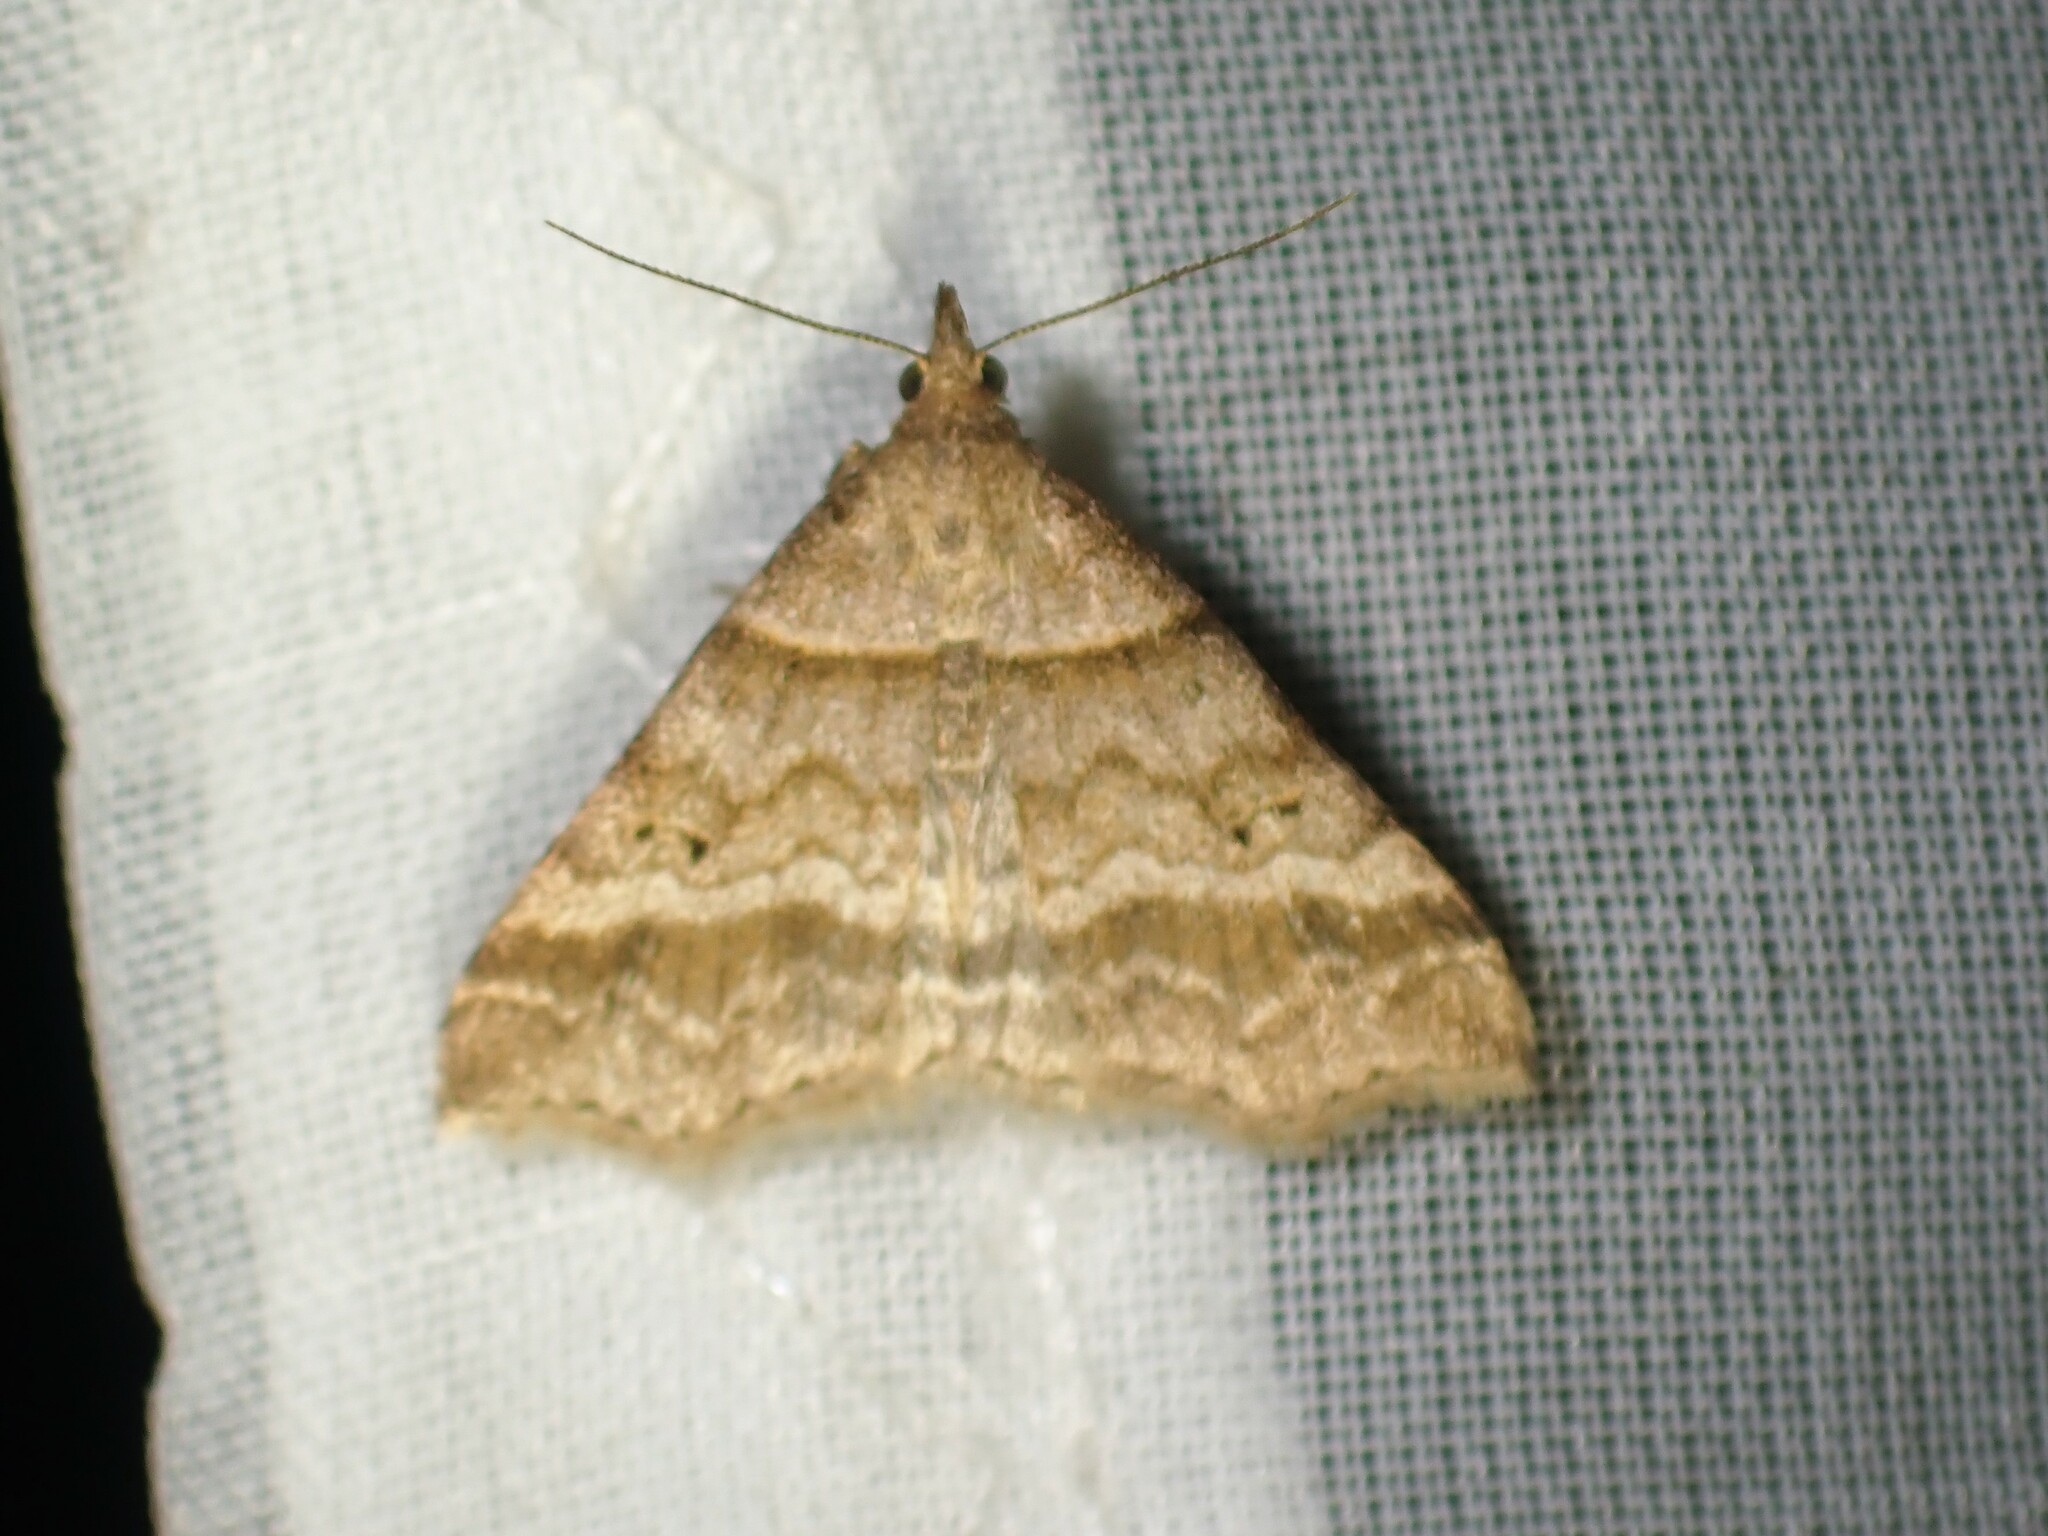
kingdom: Animalia
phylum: Arthropoda
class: Insecta
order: Lepidoptera
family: Erebidae
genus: Phaeolita
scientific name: Phaeolita pyramusalis
